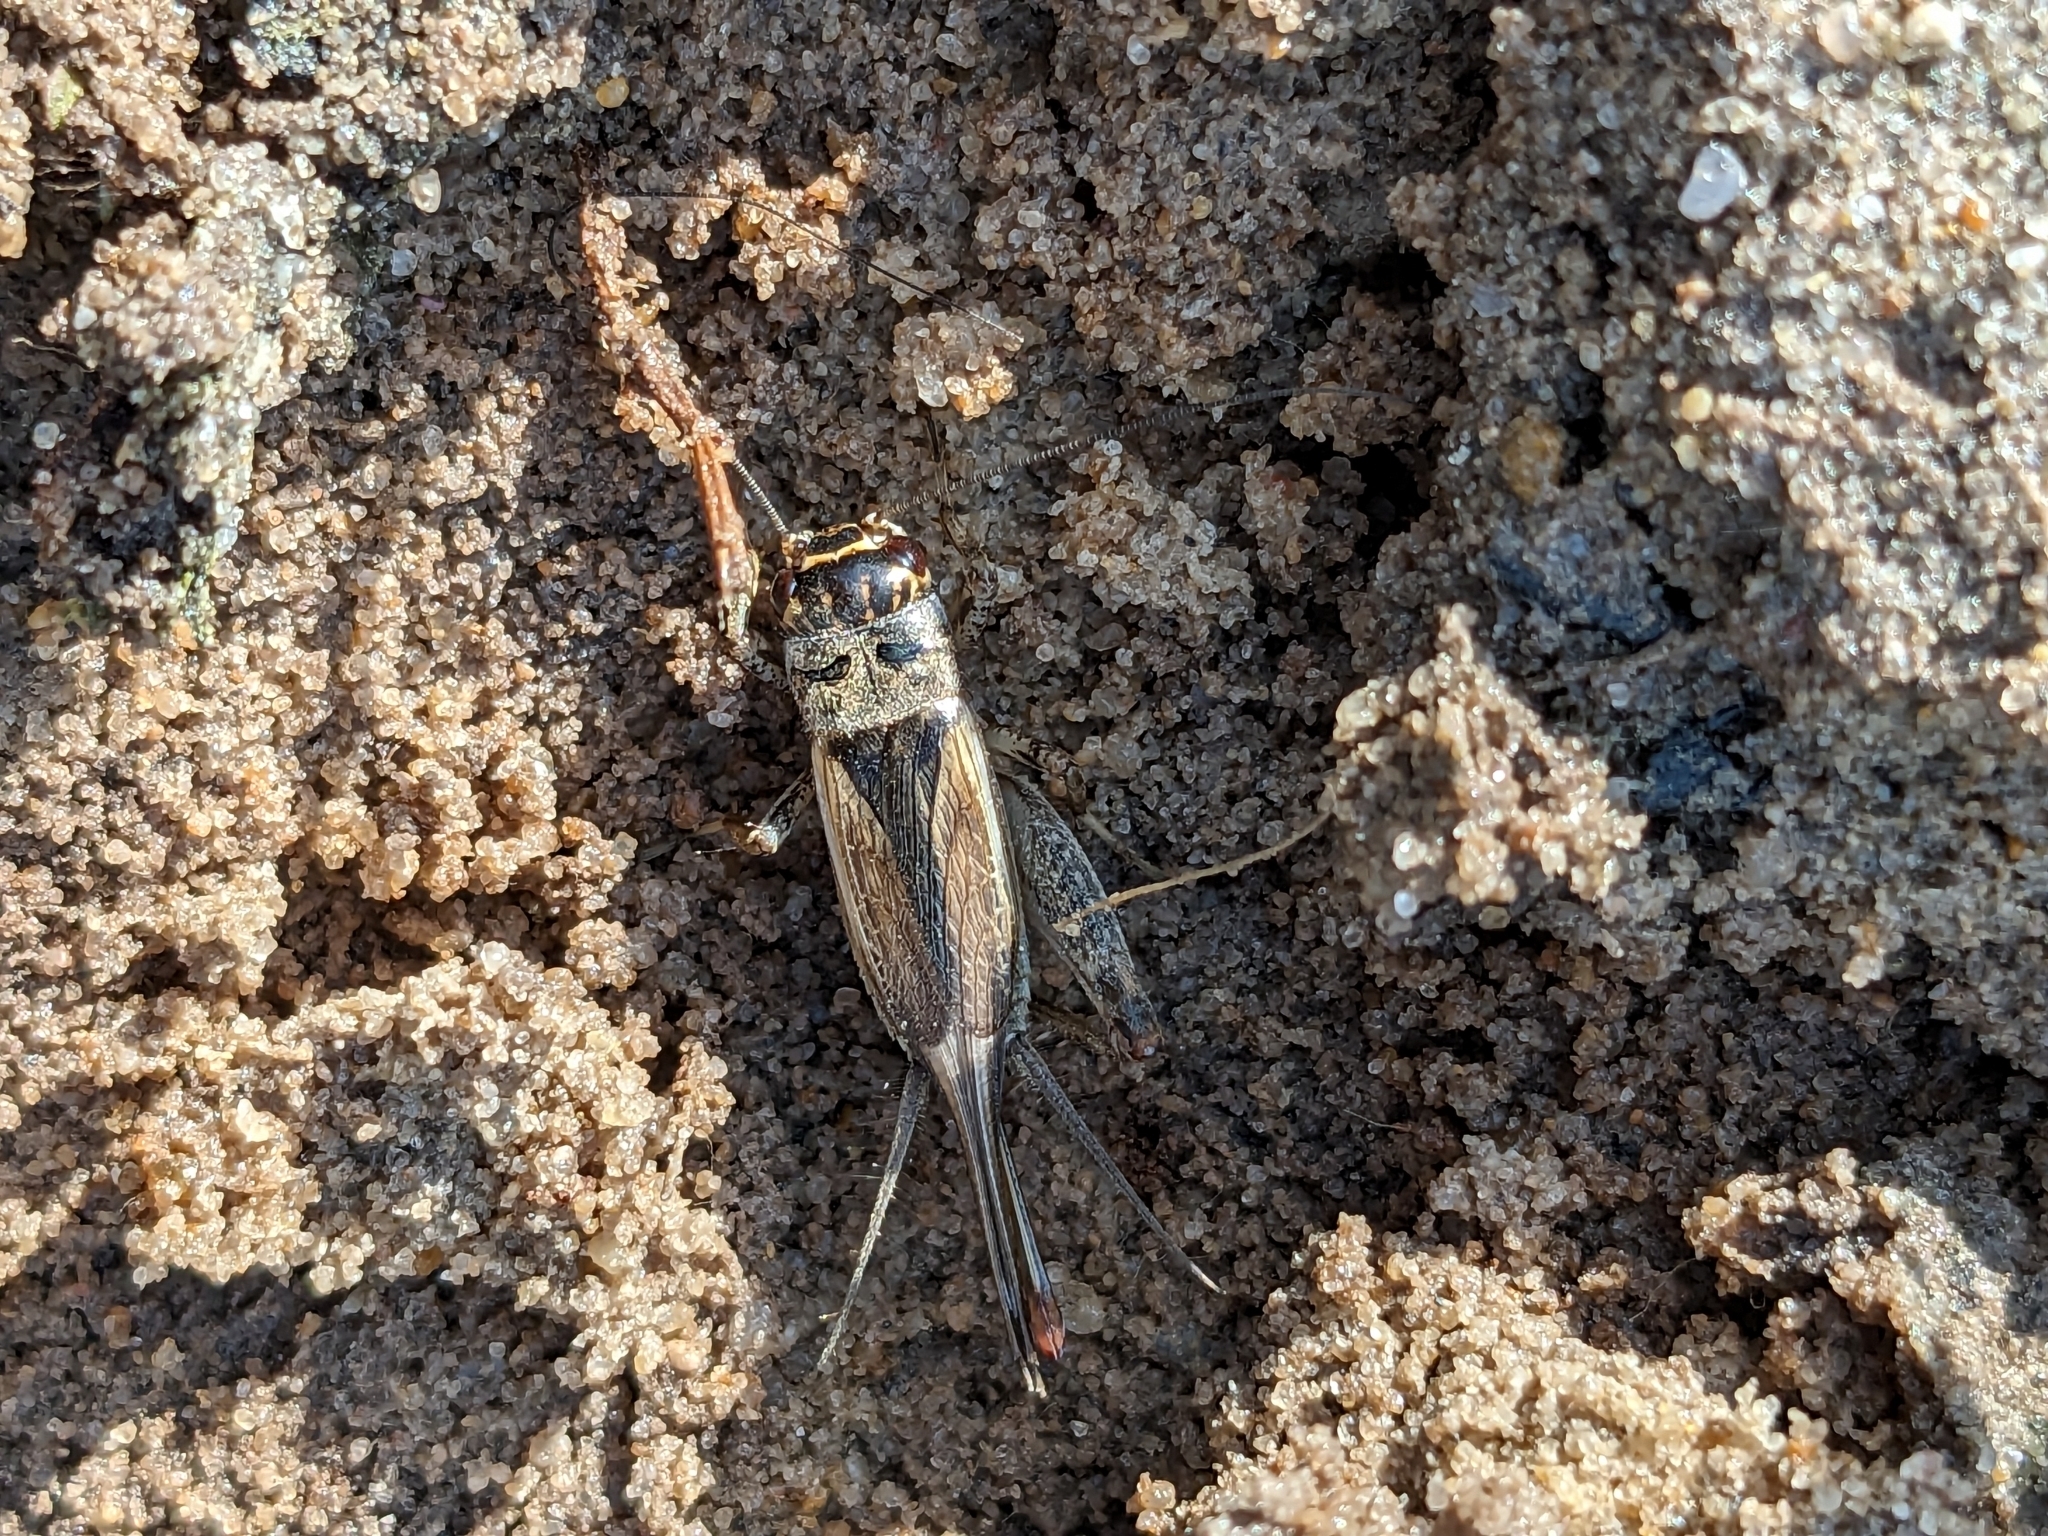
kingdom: Animalia
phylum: Arthropoda
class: Insecta
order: Orthoptera
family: Gryllidae
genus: Eumodicogryllus
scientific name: Eumodicogryllus bordigalensis
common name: Bordeaux cricket
